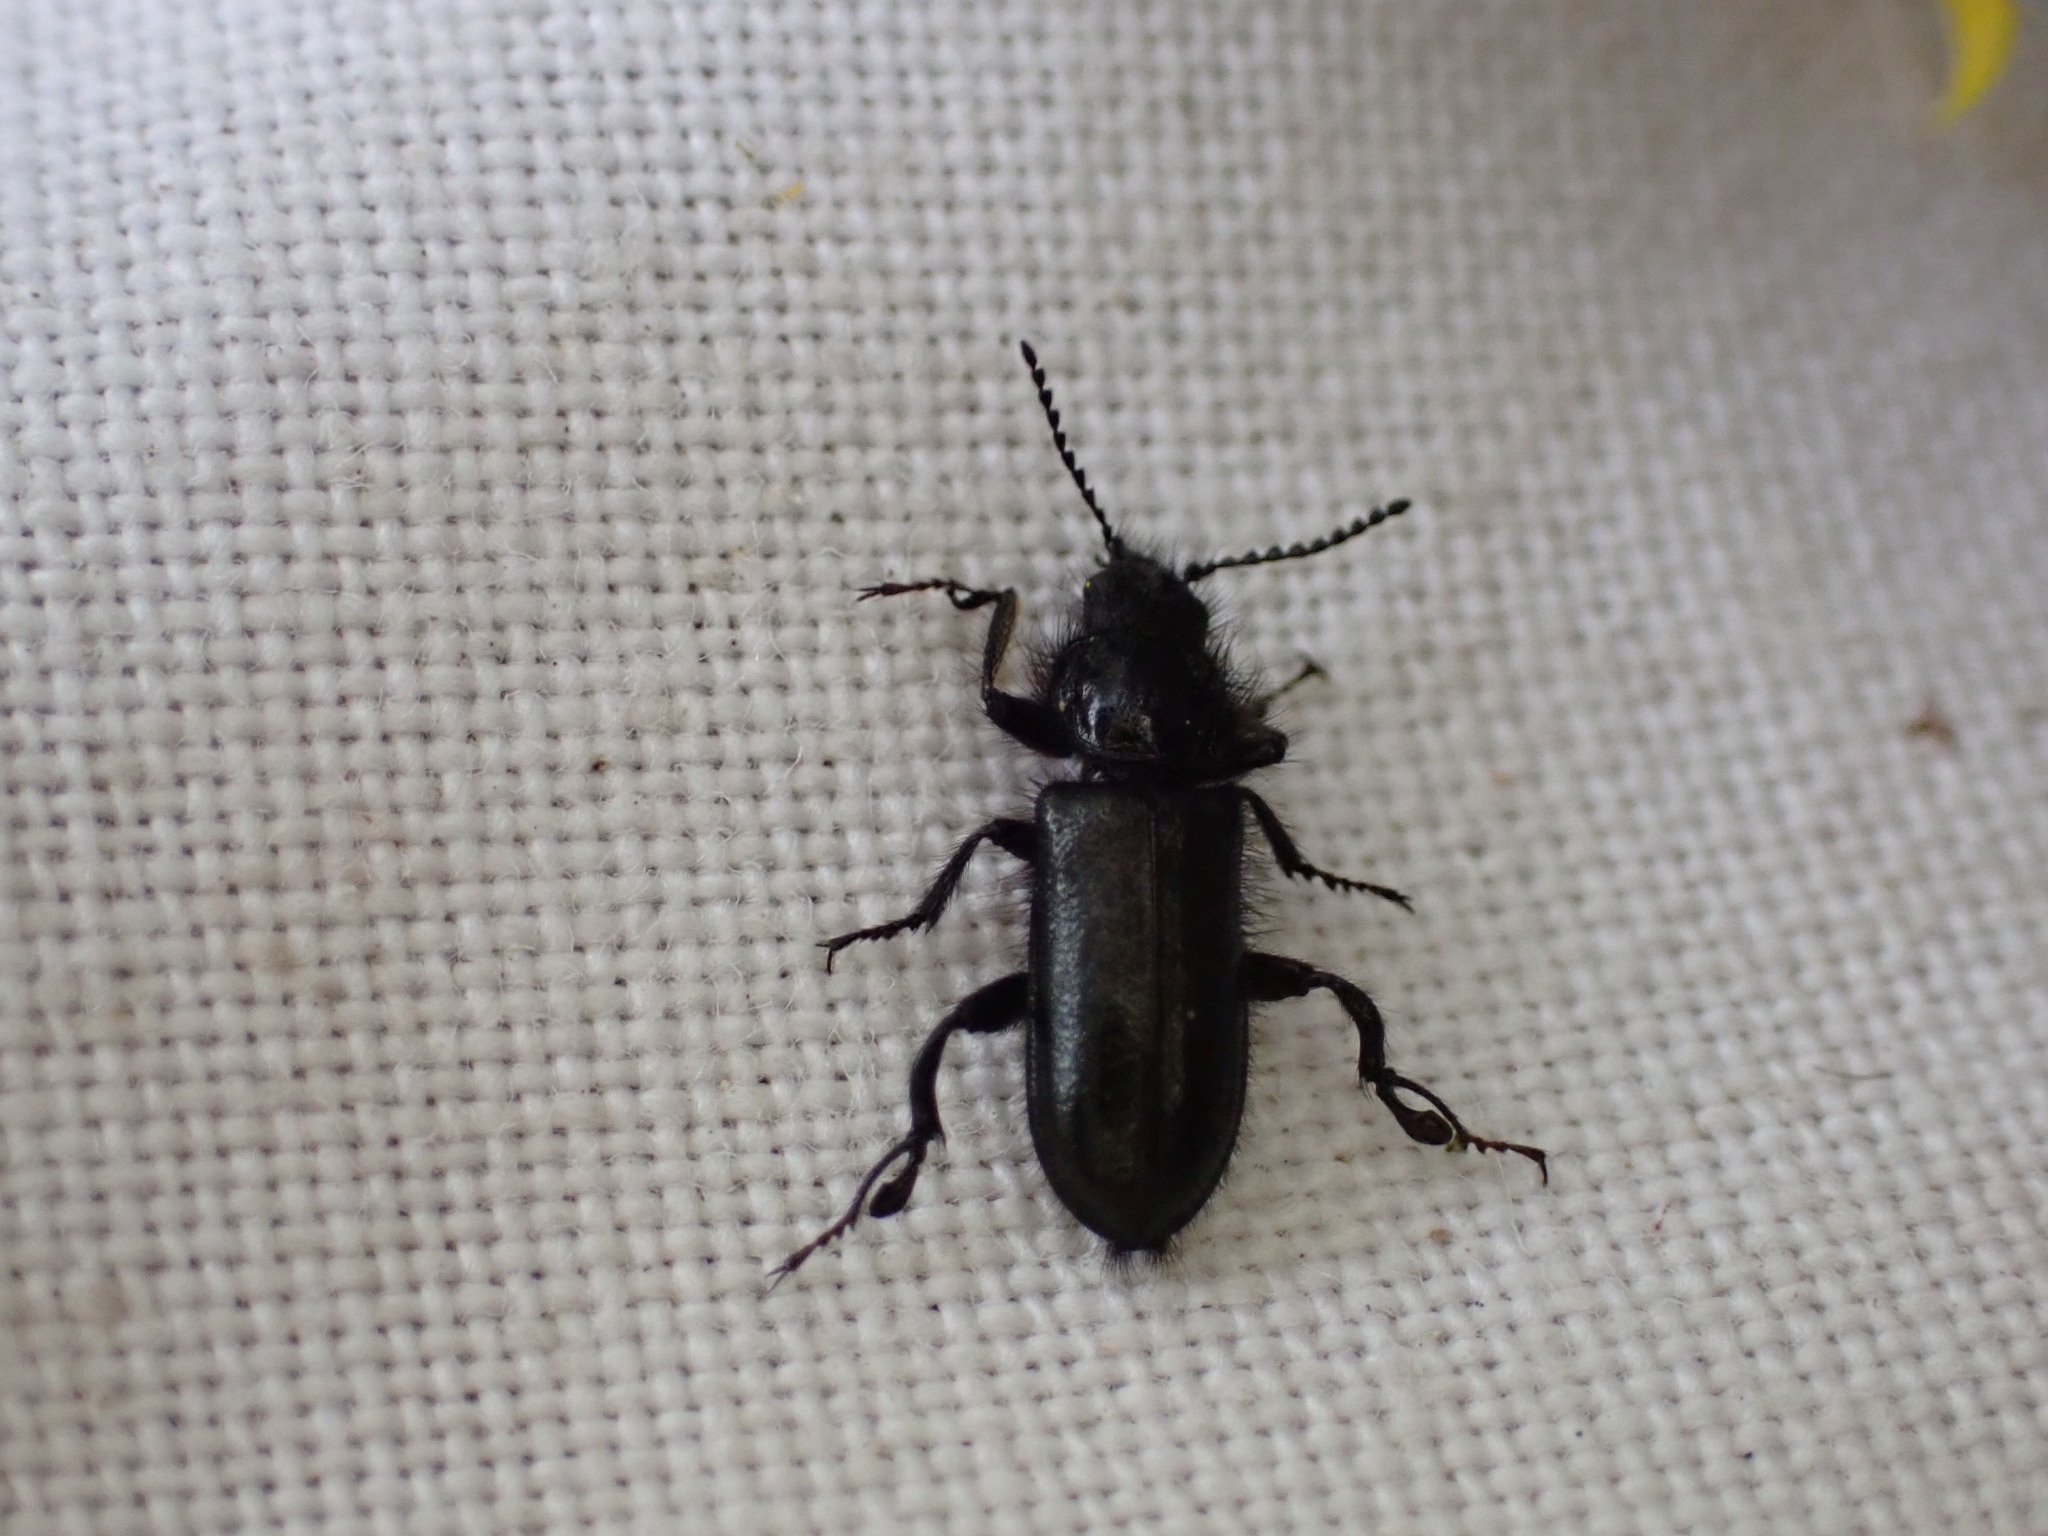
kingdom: Animalia
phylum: Arthropoda
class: Insecta
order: Coleoptera
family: Melyridae
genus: Enicopus
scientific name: Enicopus ater
